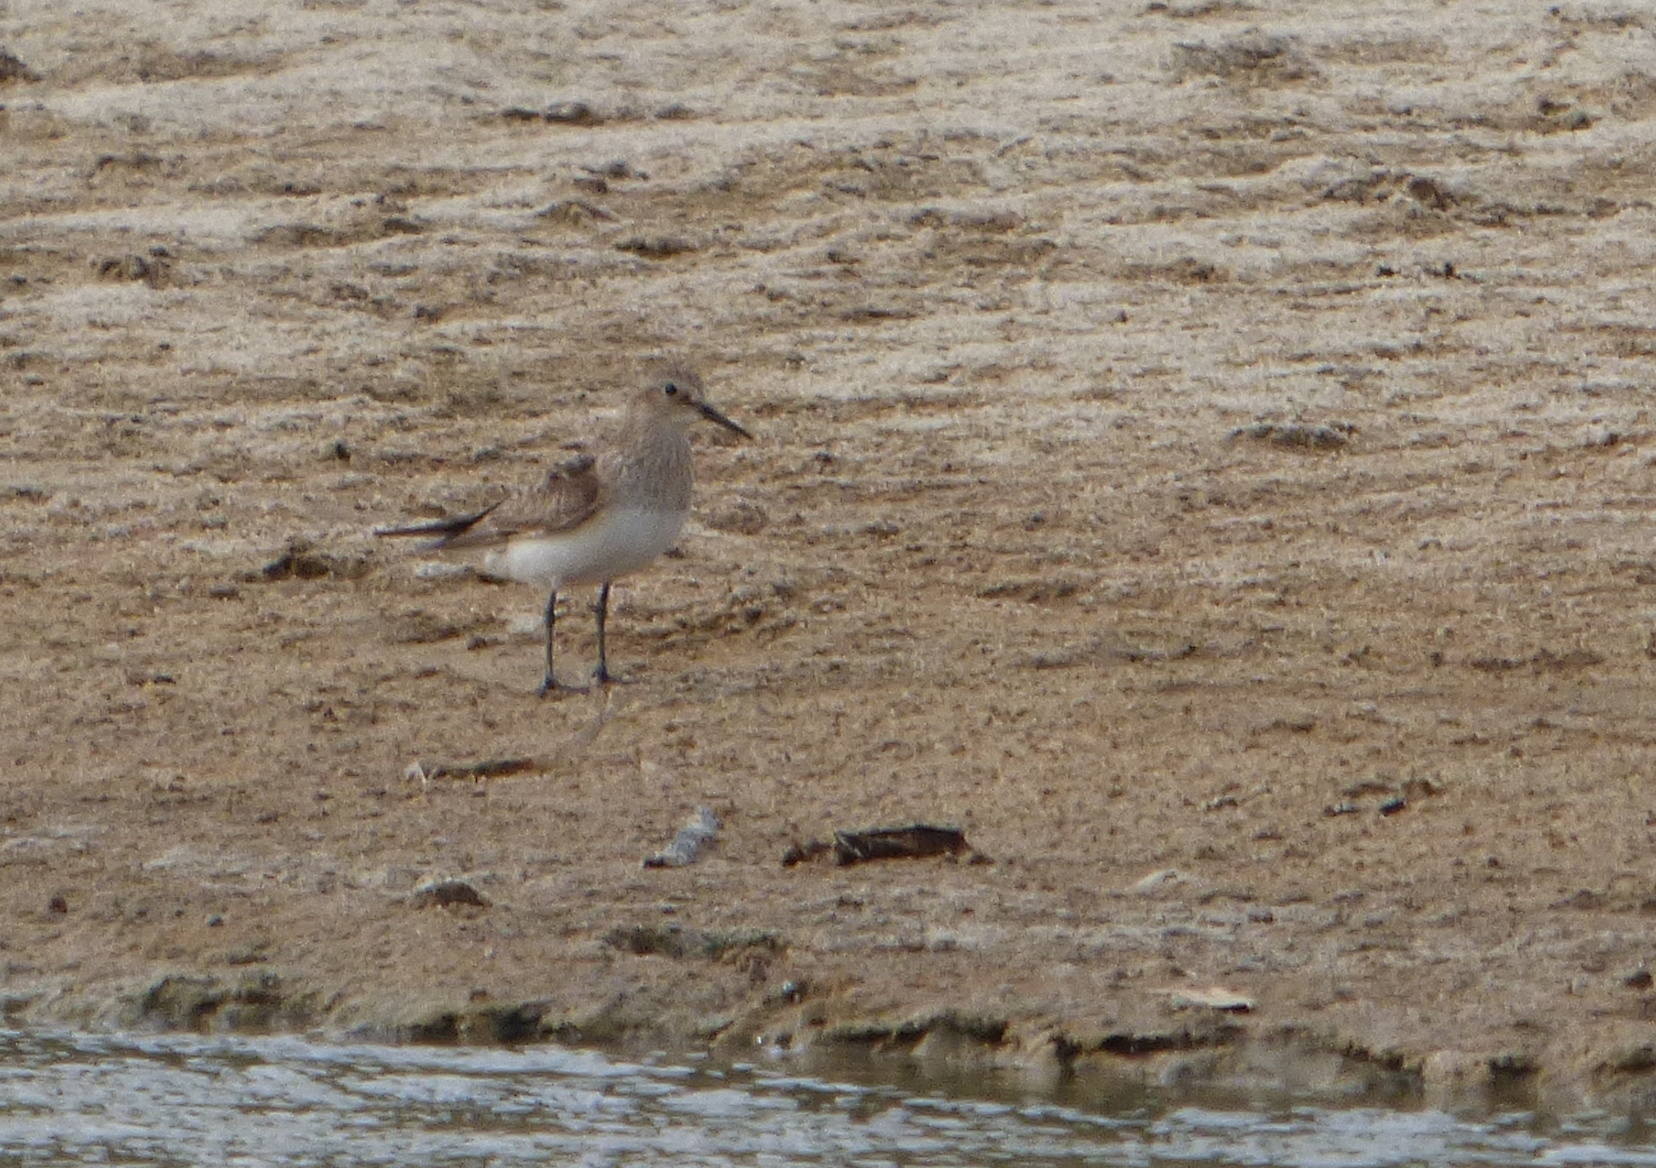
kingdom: Animalia
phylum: Chordata
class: Aves
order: Charadriiformes
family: Scolopacidae
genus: Calidris
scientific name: Calidris bairdii
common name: Baird's sandpiper
